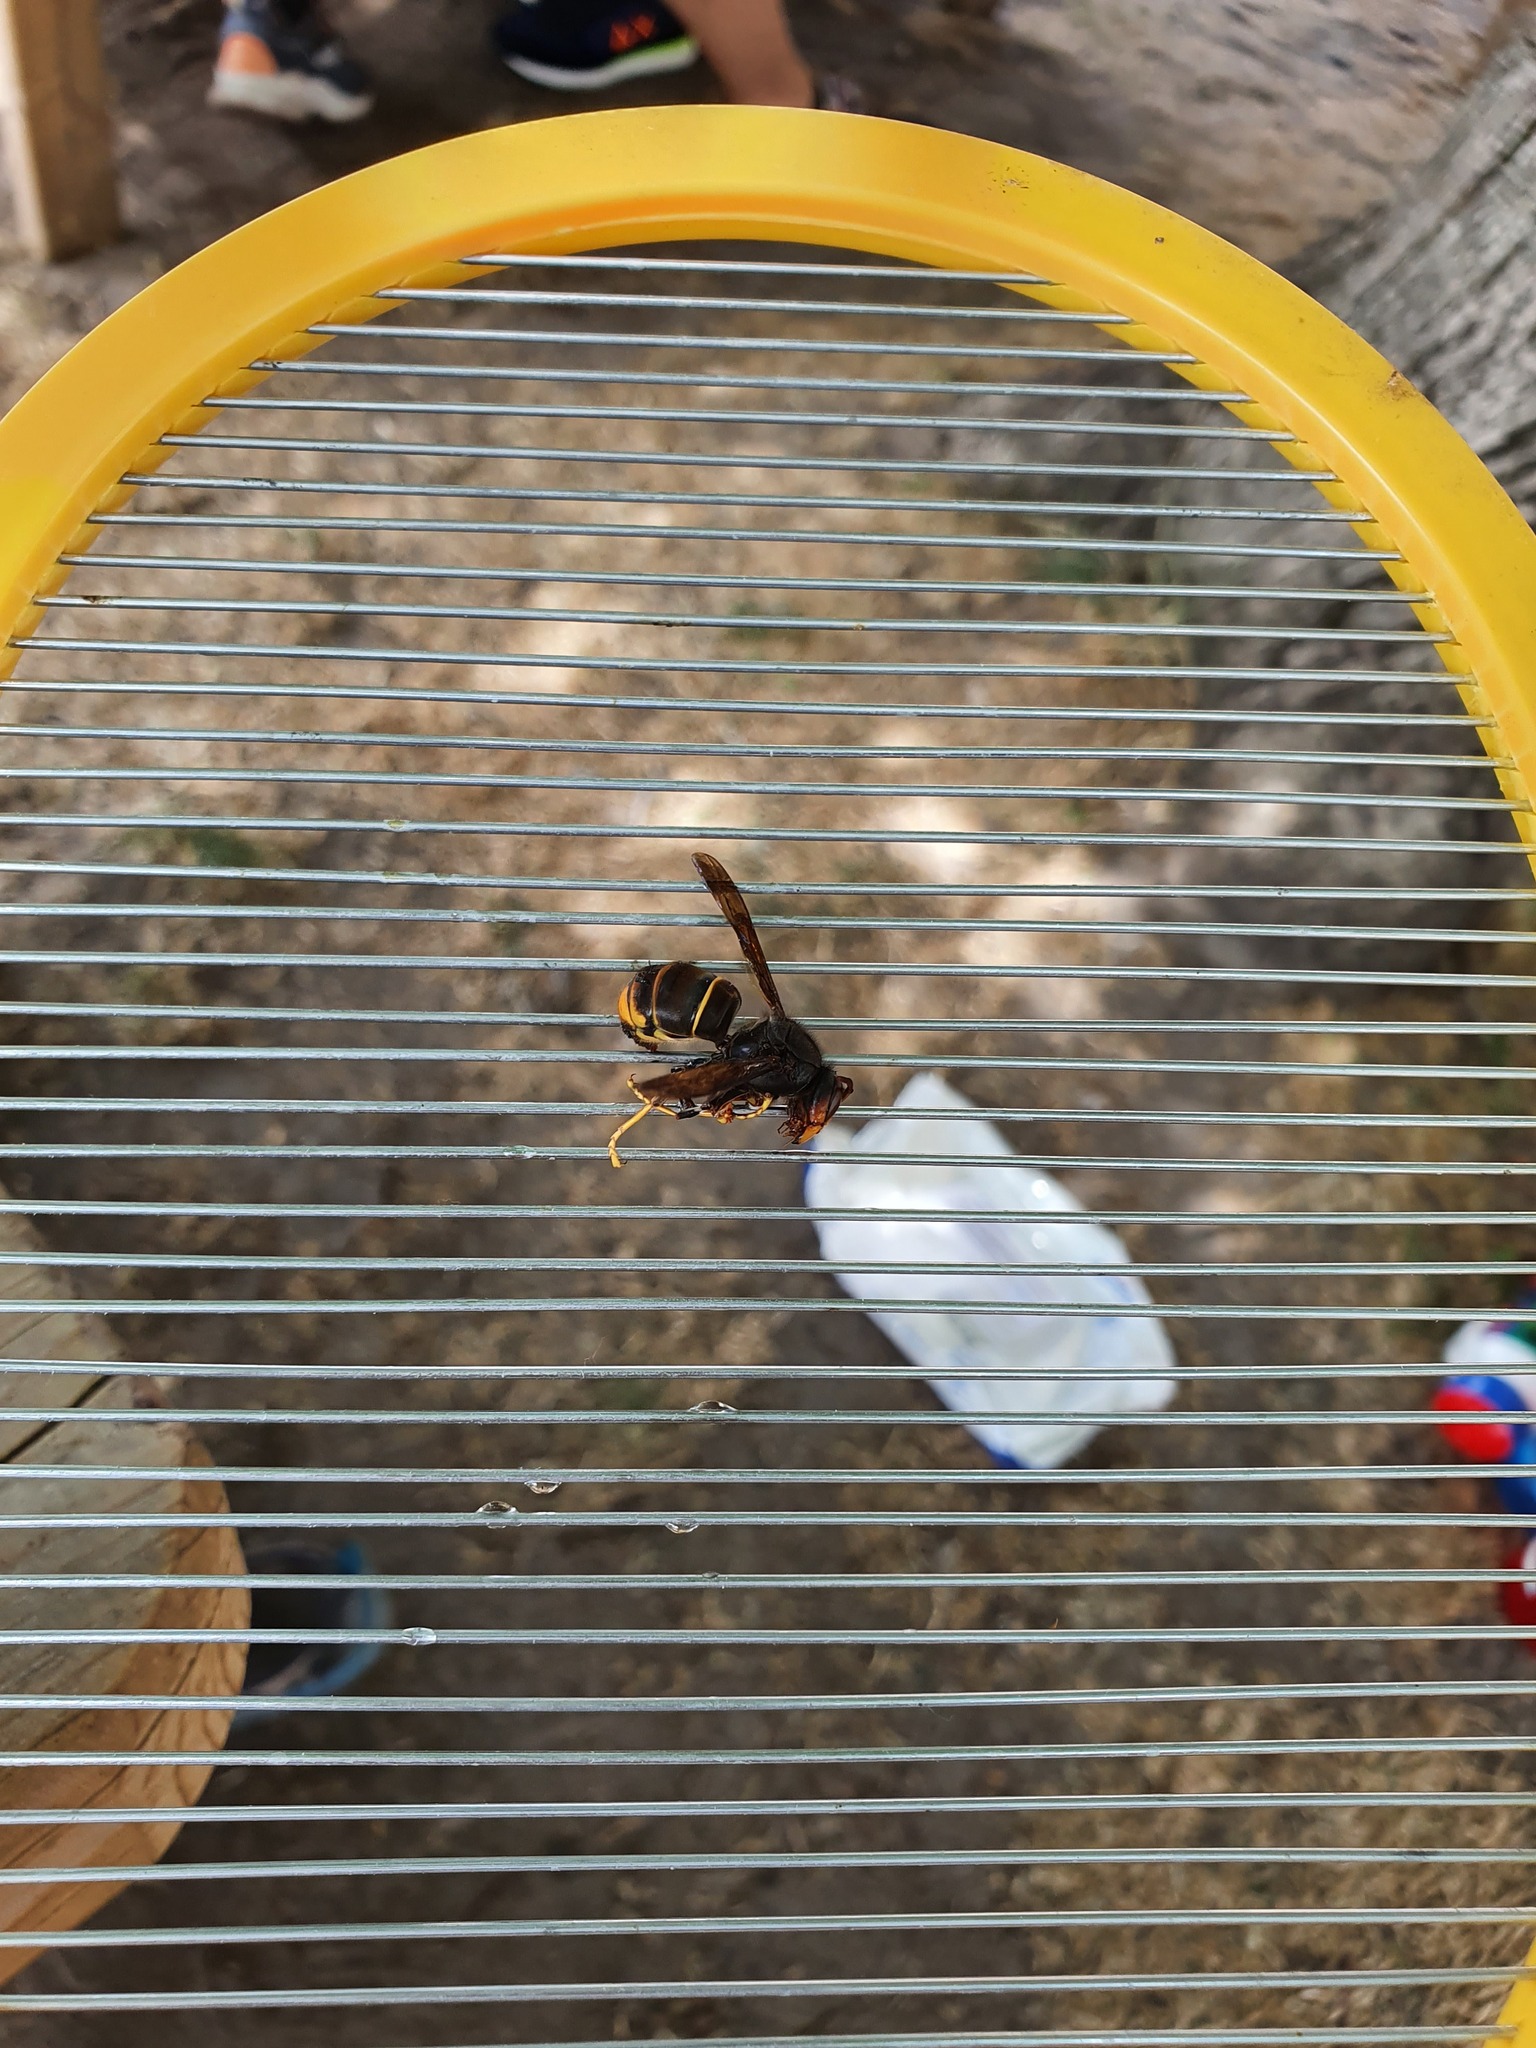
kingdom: Animalia
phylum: Arthropoda
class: Insecta
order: Hymenoptera
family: Vespidae
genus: Vespa
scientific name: Vespa velutina
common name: Asian hornet
